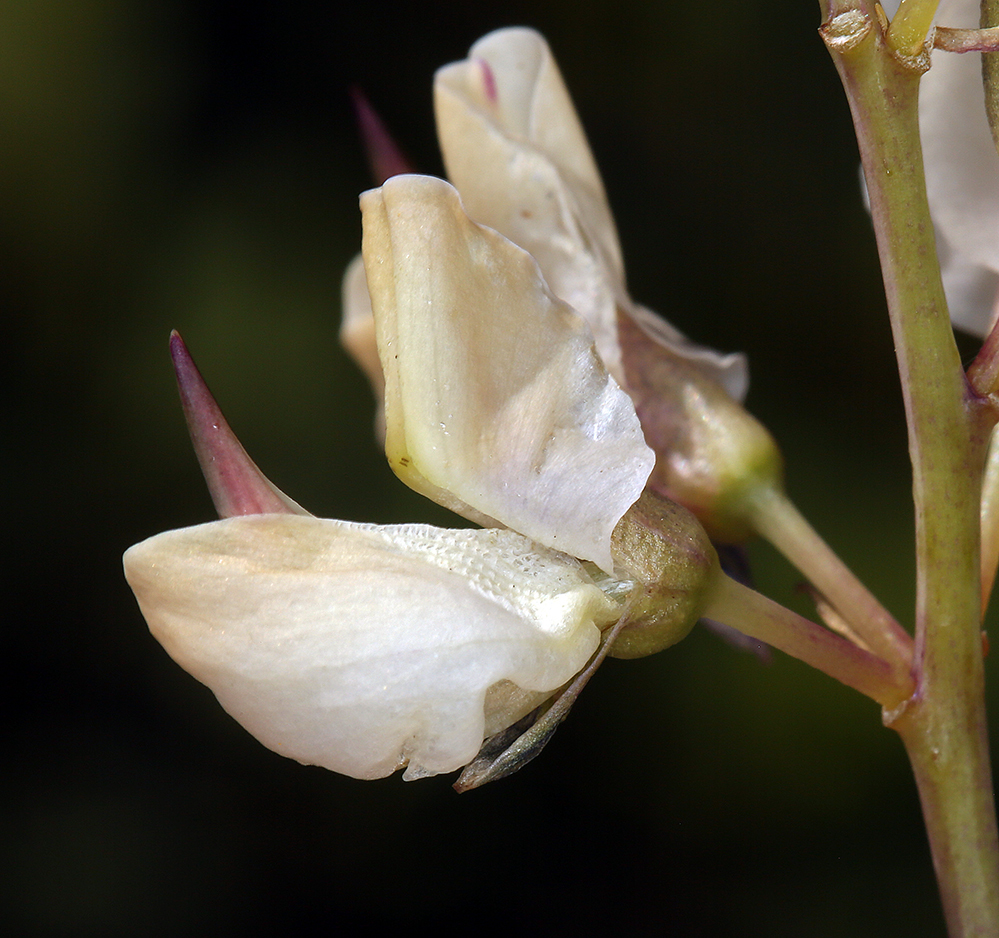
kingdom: Plantae
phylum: Tracheophyta
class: Magnoliopsida
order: Fabales
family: Fabaceae
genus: Lupinus
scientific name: Lupinus burkei
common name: Largeleaf lupine
